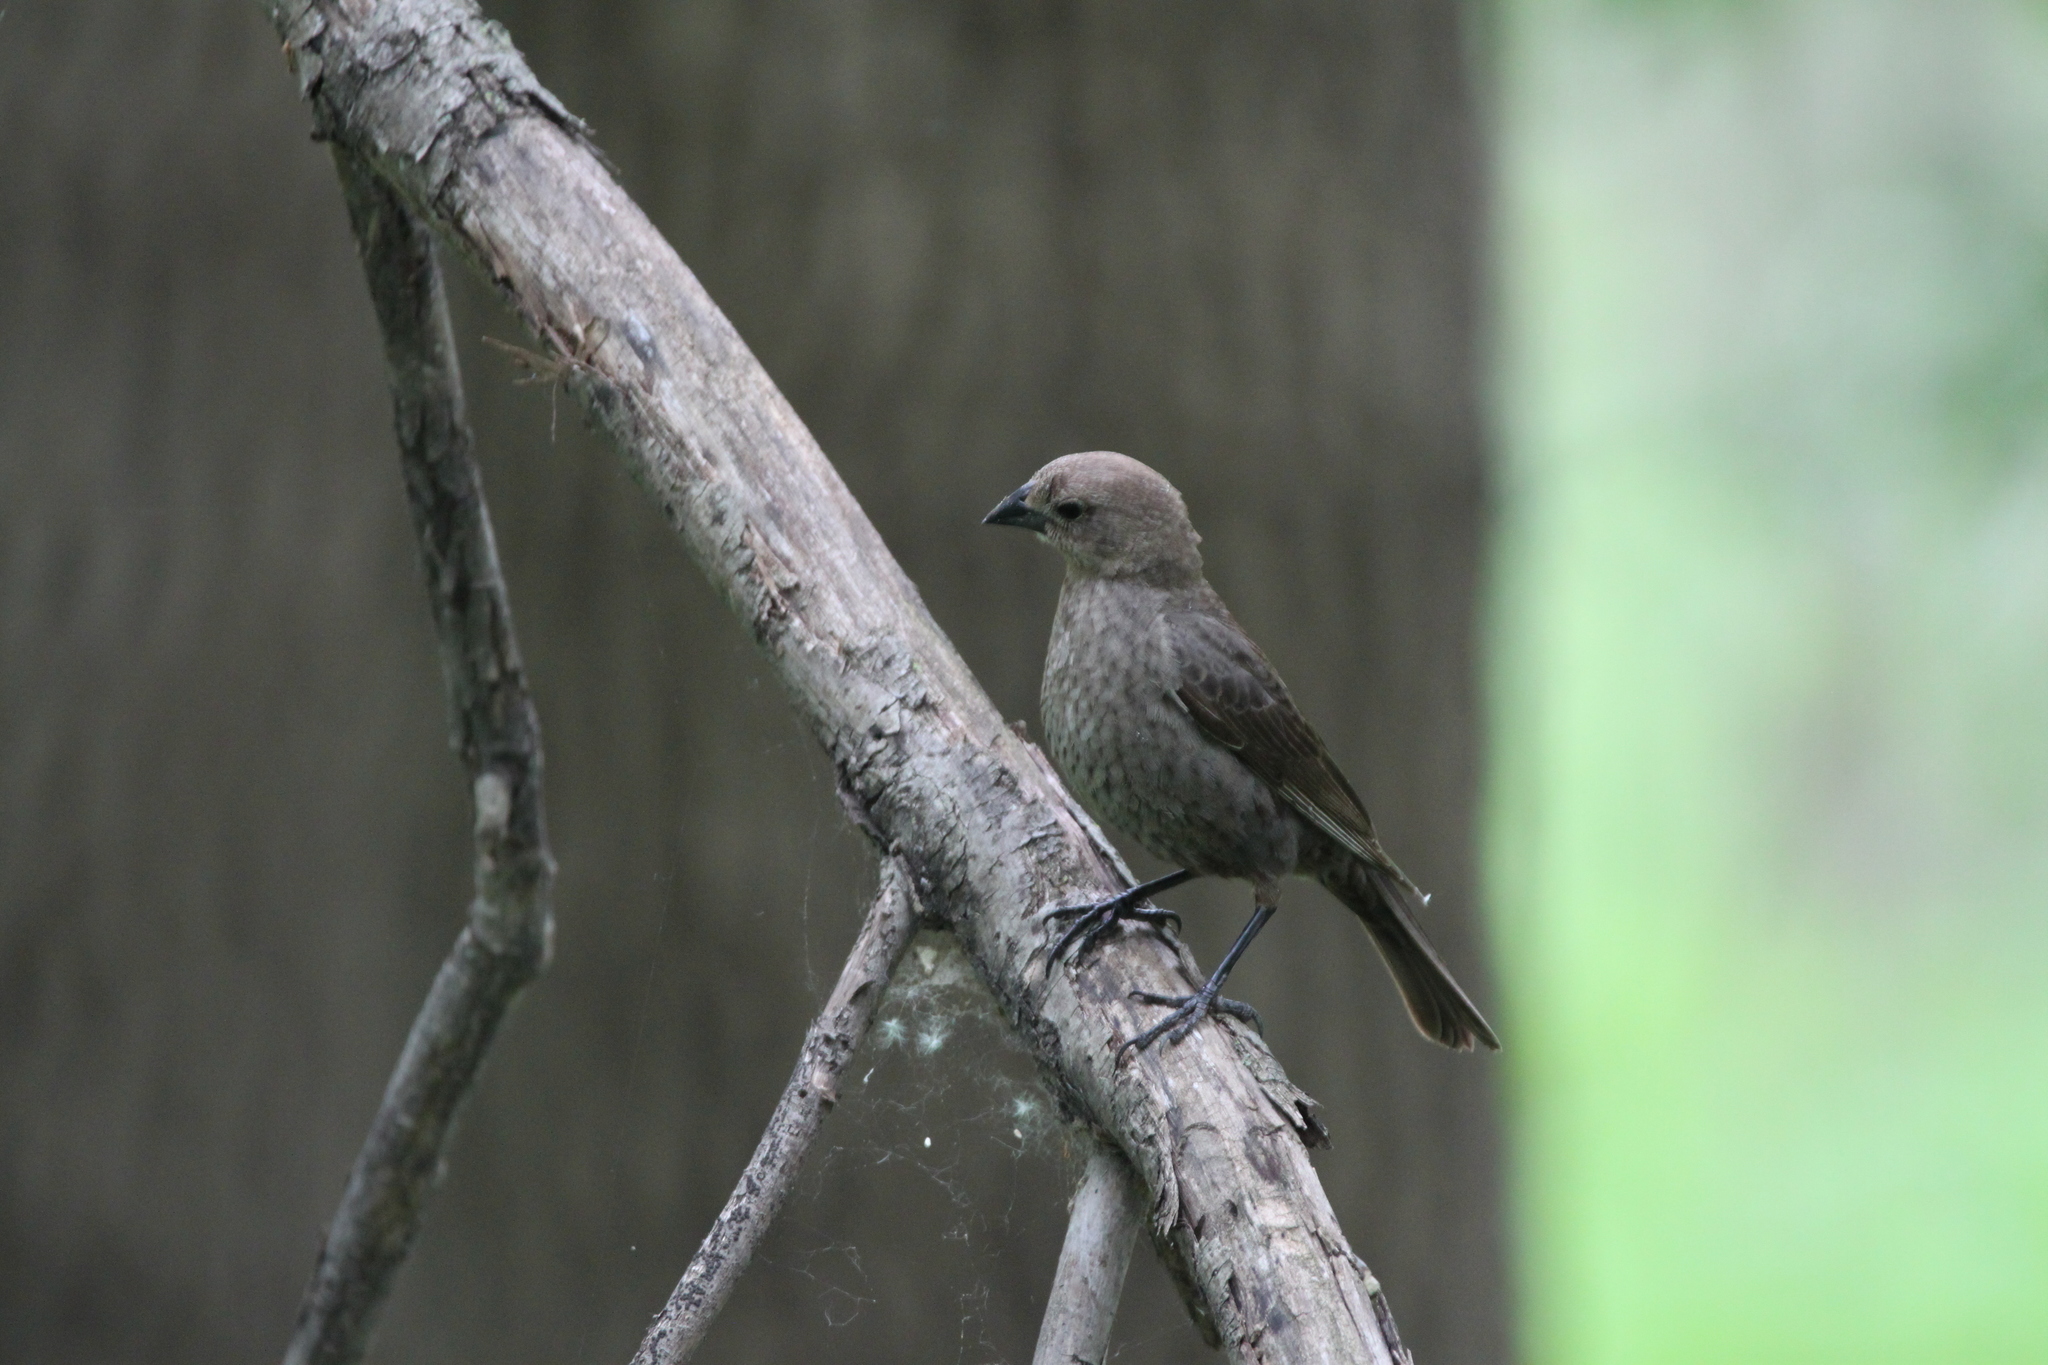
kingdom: Animalia
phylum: Chordata
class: Aves
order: Passeriformes
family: Icteridae
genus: Molothrus
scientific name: Molothrus ater
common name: Brown-headed cowbird
